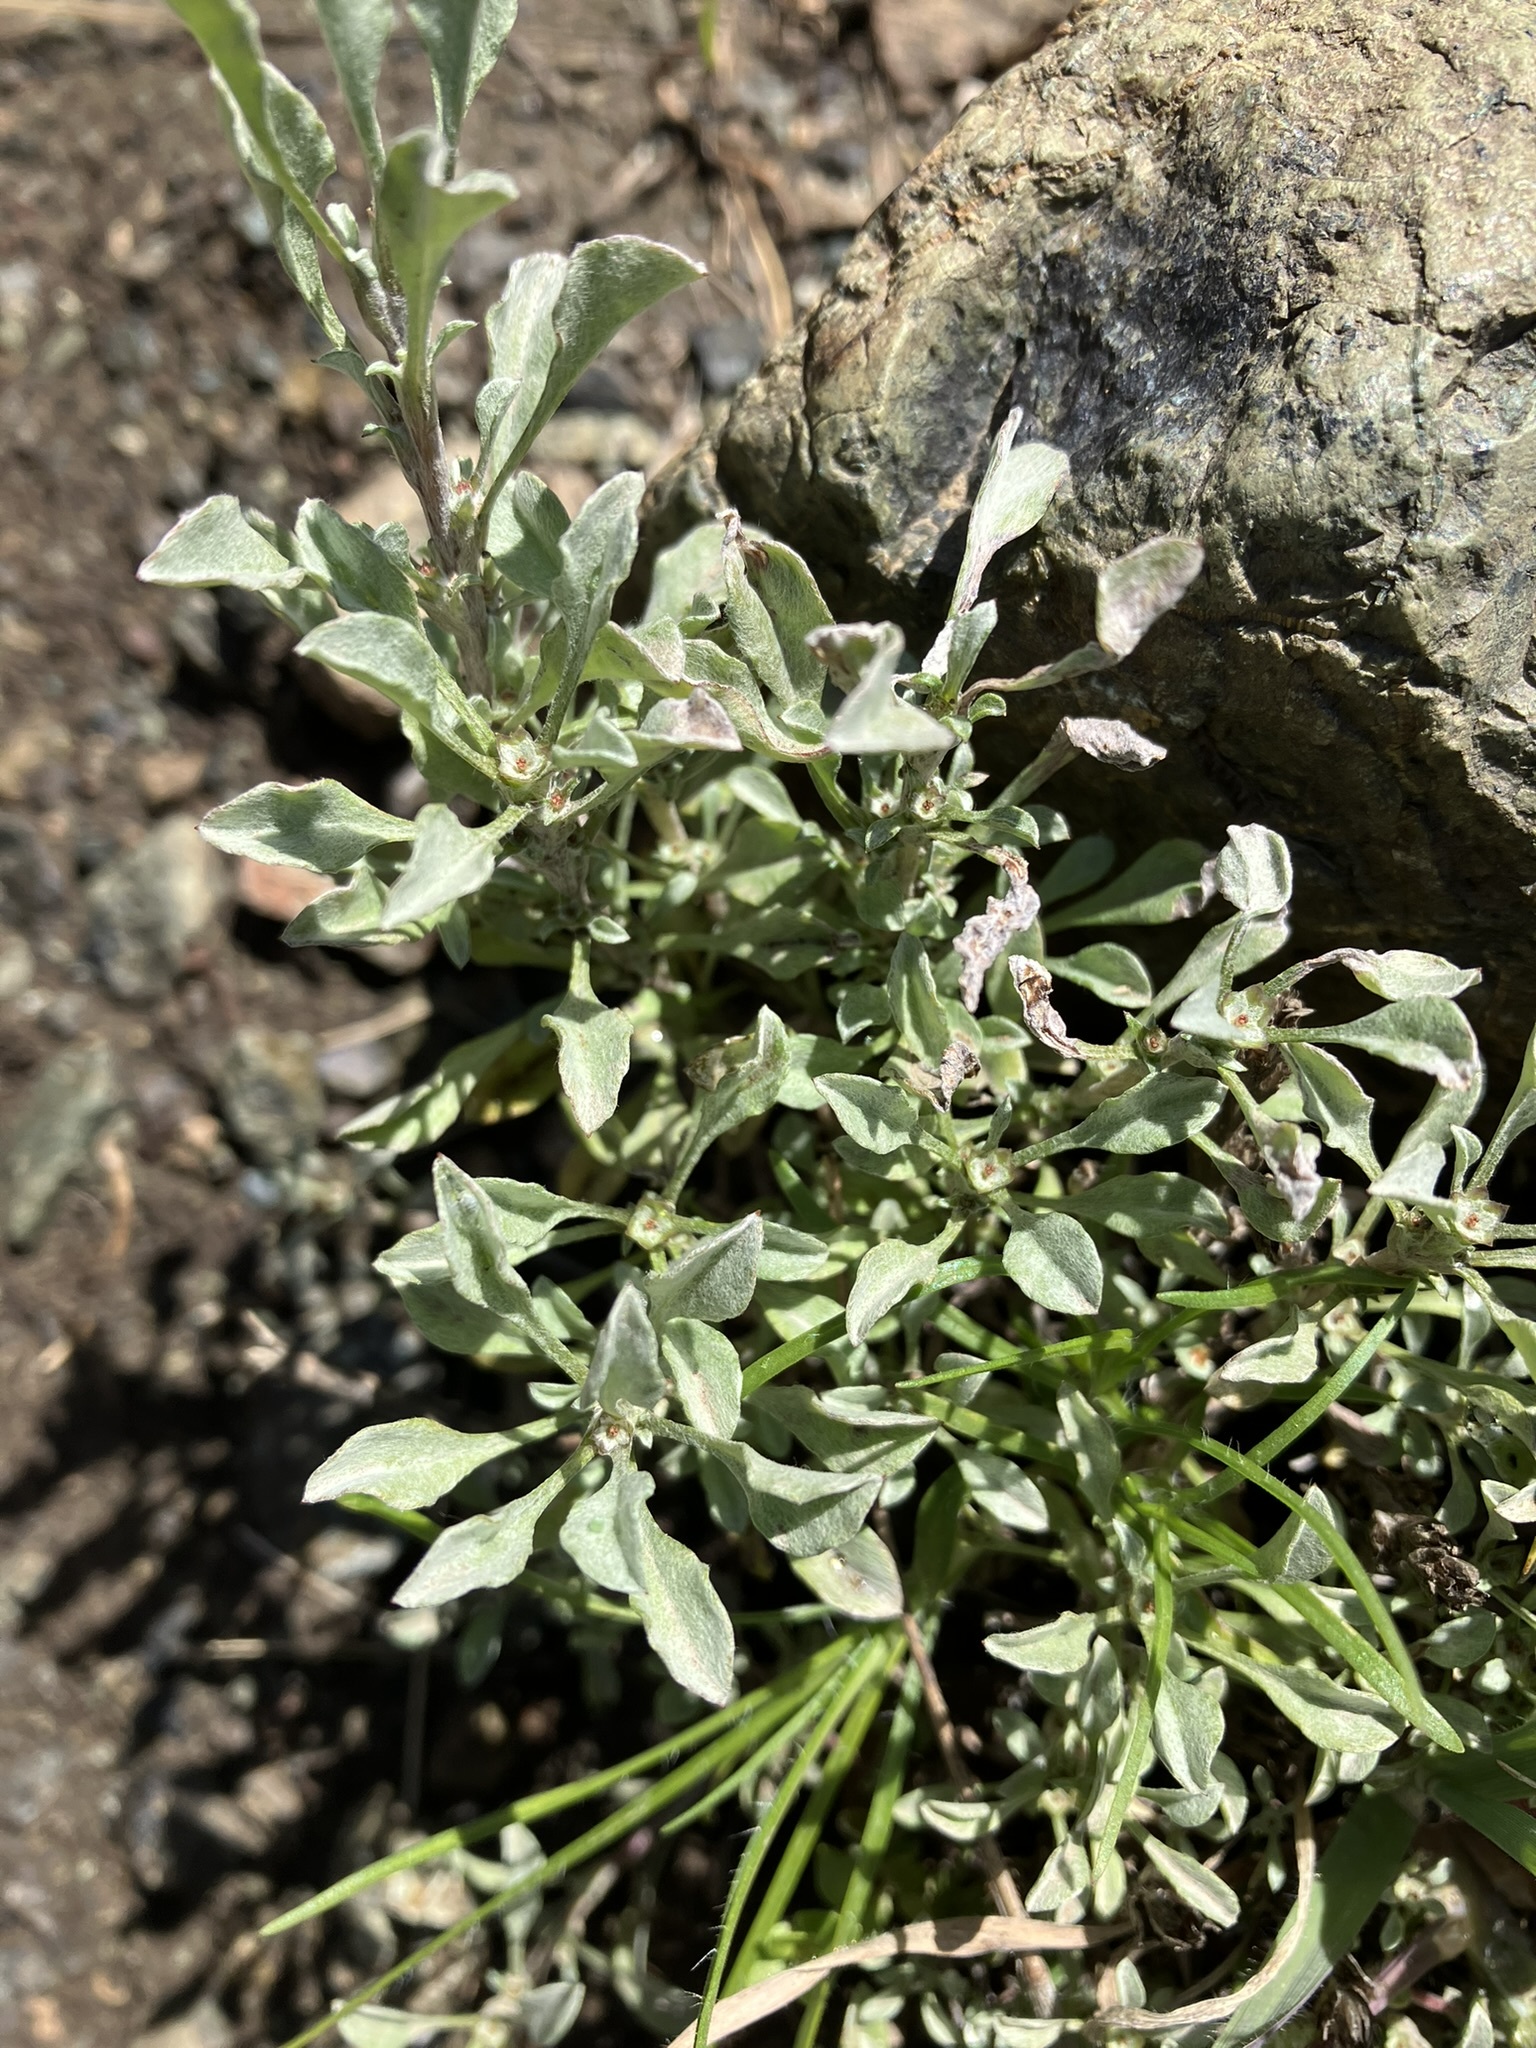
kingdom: Plantae
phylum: Tracheophyta
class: Magnoliopsida
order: Asterales
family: Asteraceae
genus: Hesperevax
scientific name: Hesperevax sparsiflora
